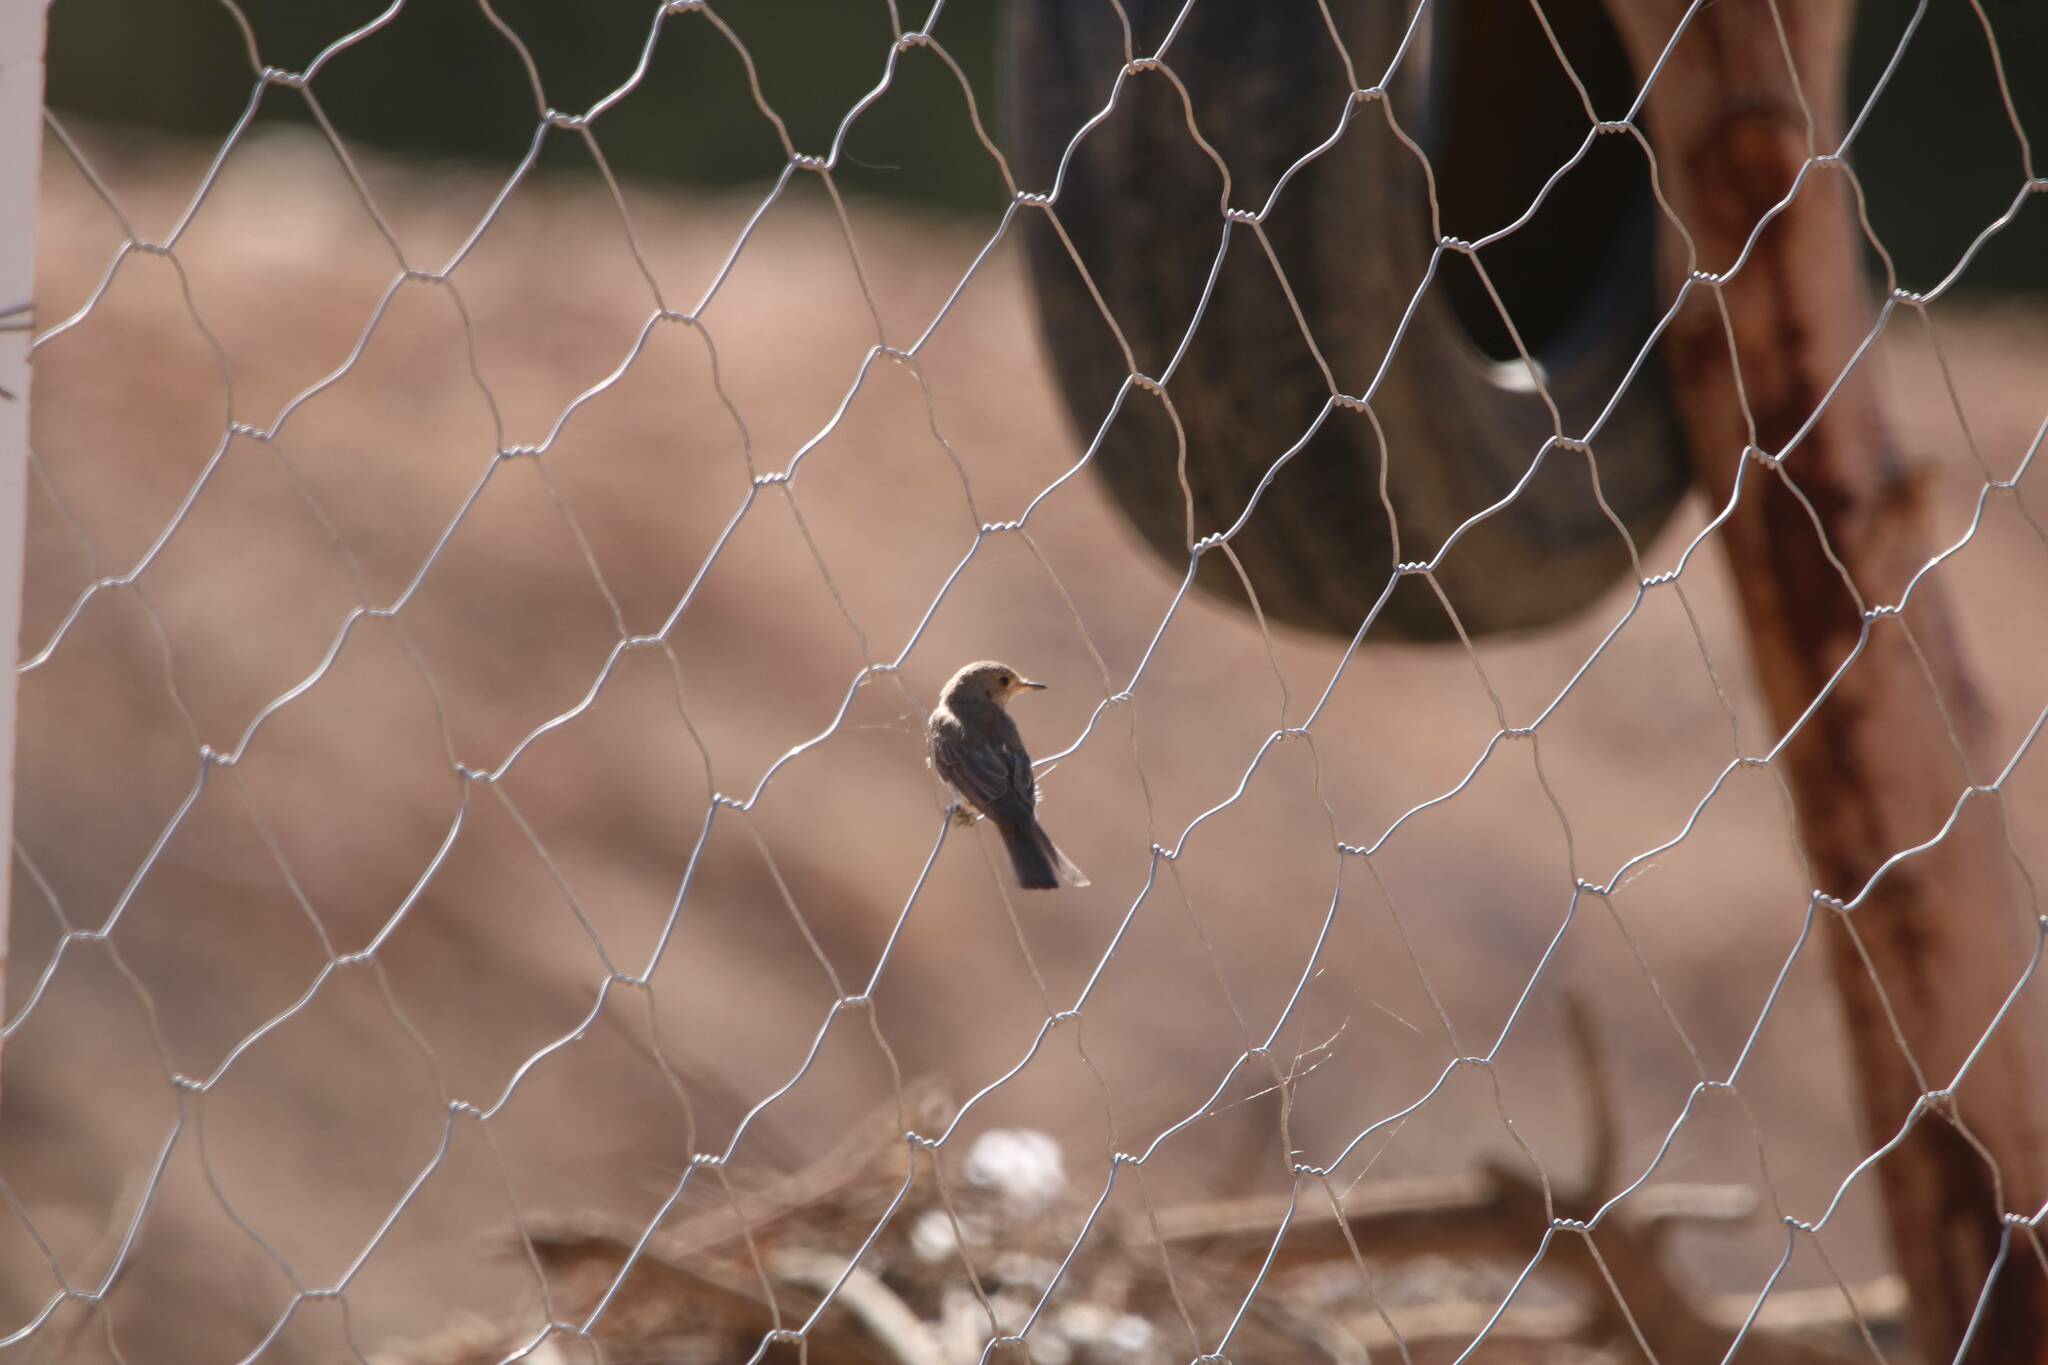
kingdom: Animalia
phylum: Chordata
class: Aves
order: Passeriformes
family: Muscicapidae
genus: Muscicapa
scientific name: Muscicapa striata
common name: Spotted flycatcher
